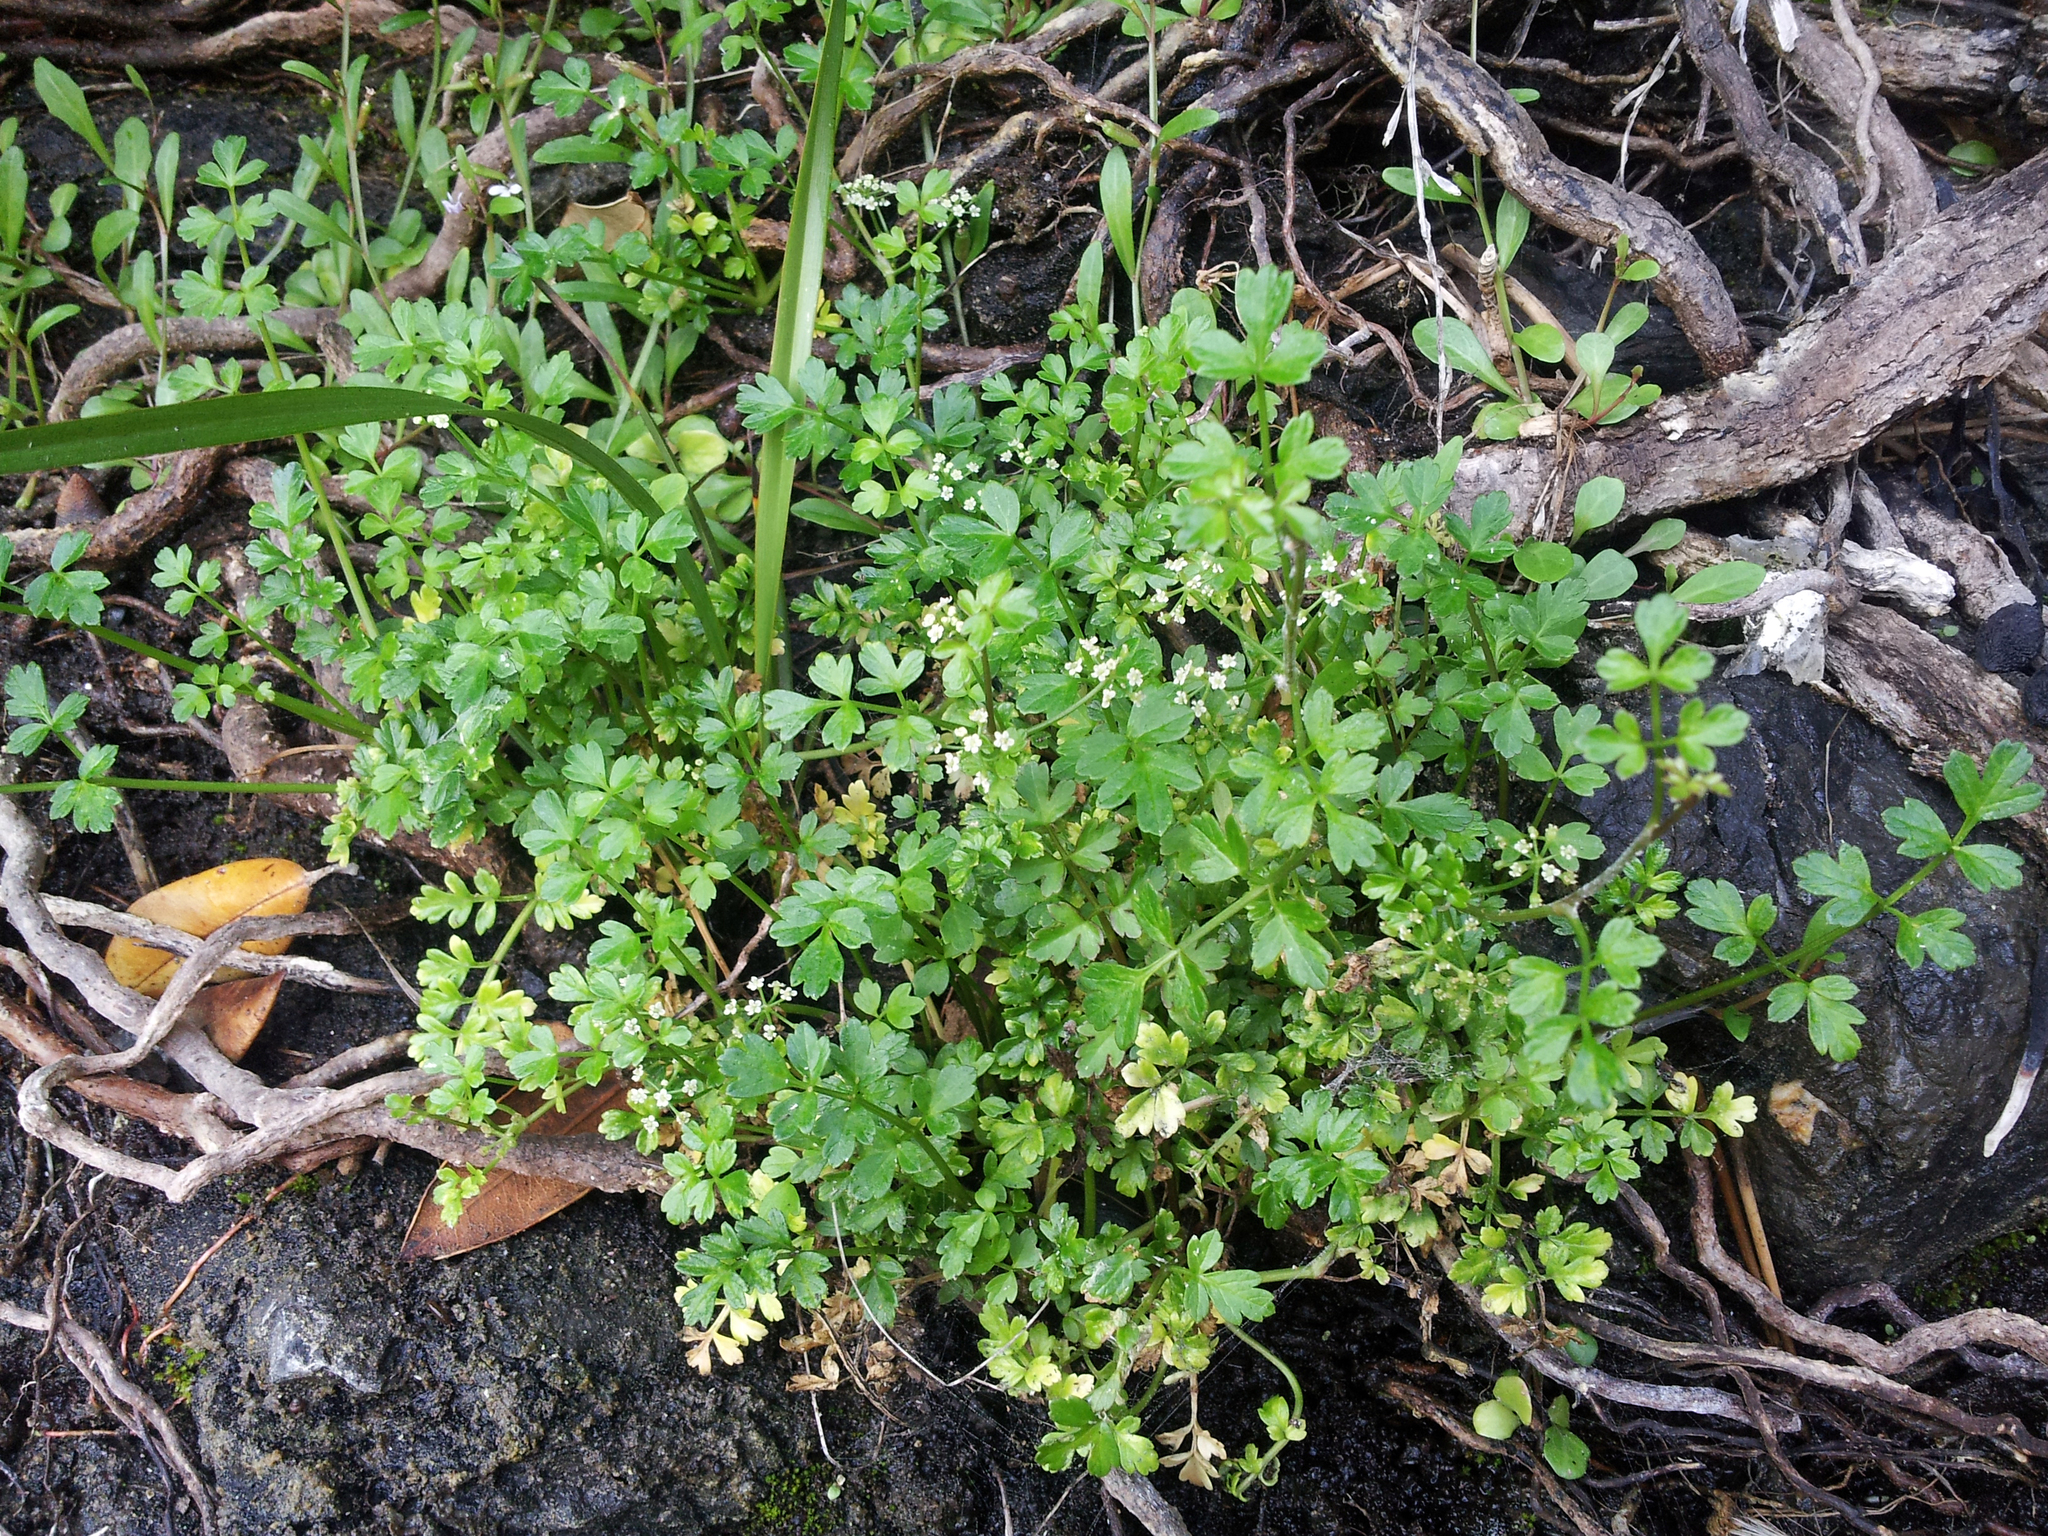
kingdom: Plantae
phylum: Tracheophyta
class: Magnoliopsida
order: Apiales
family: Apiaceae
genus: Apium
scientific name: Apium prostratum
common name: Prostrate marshwort
